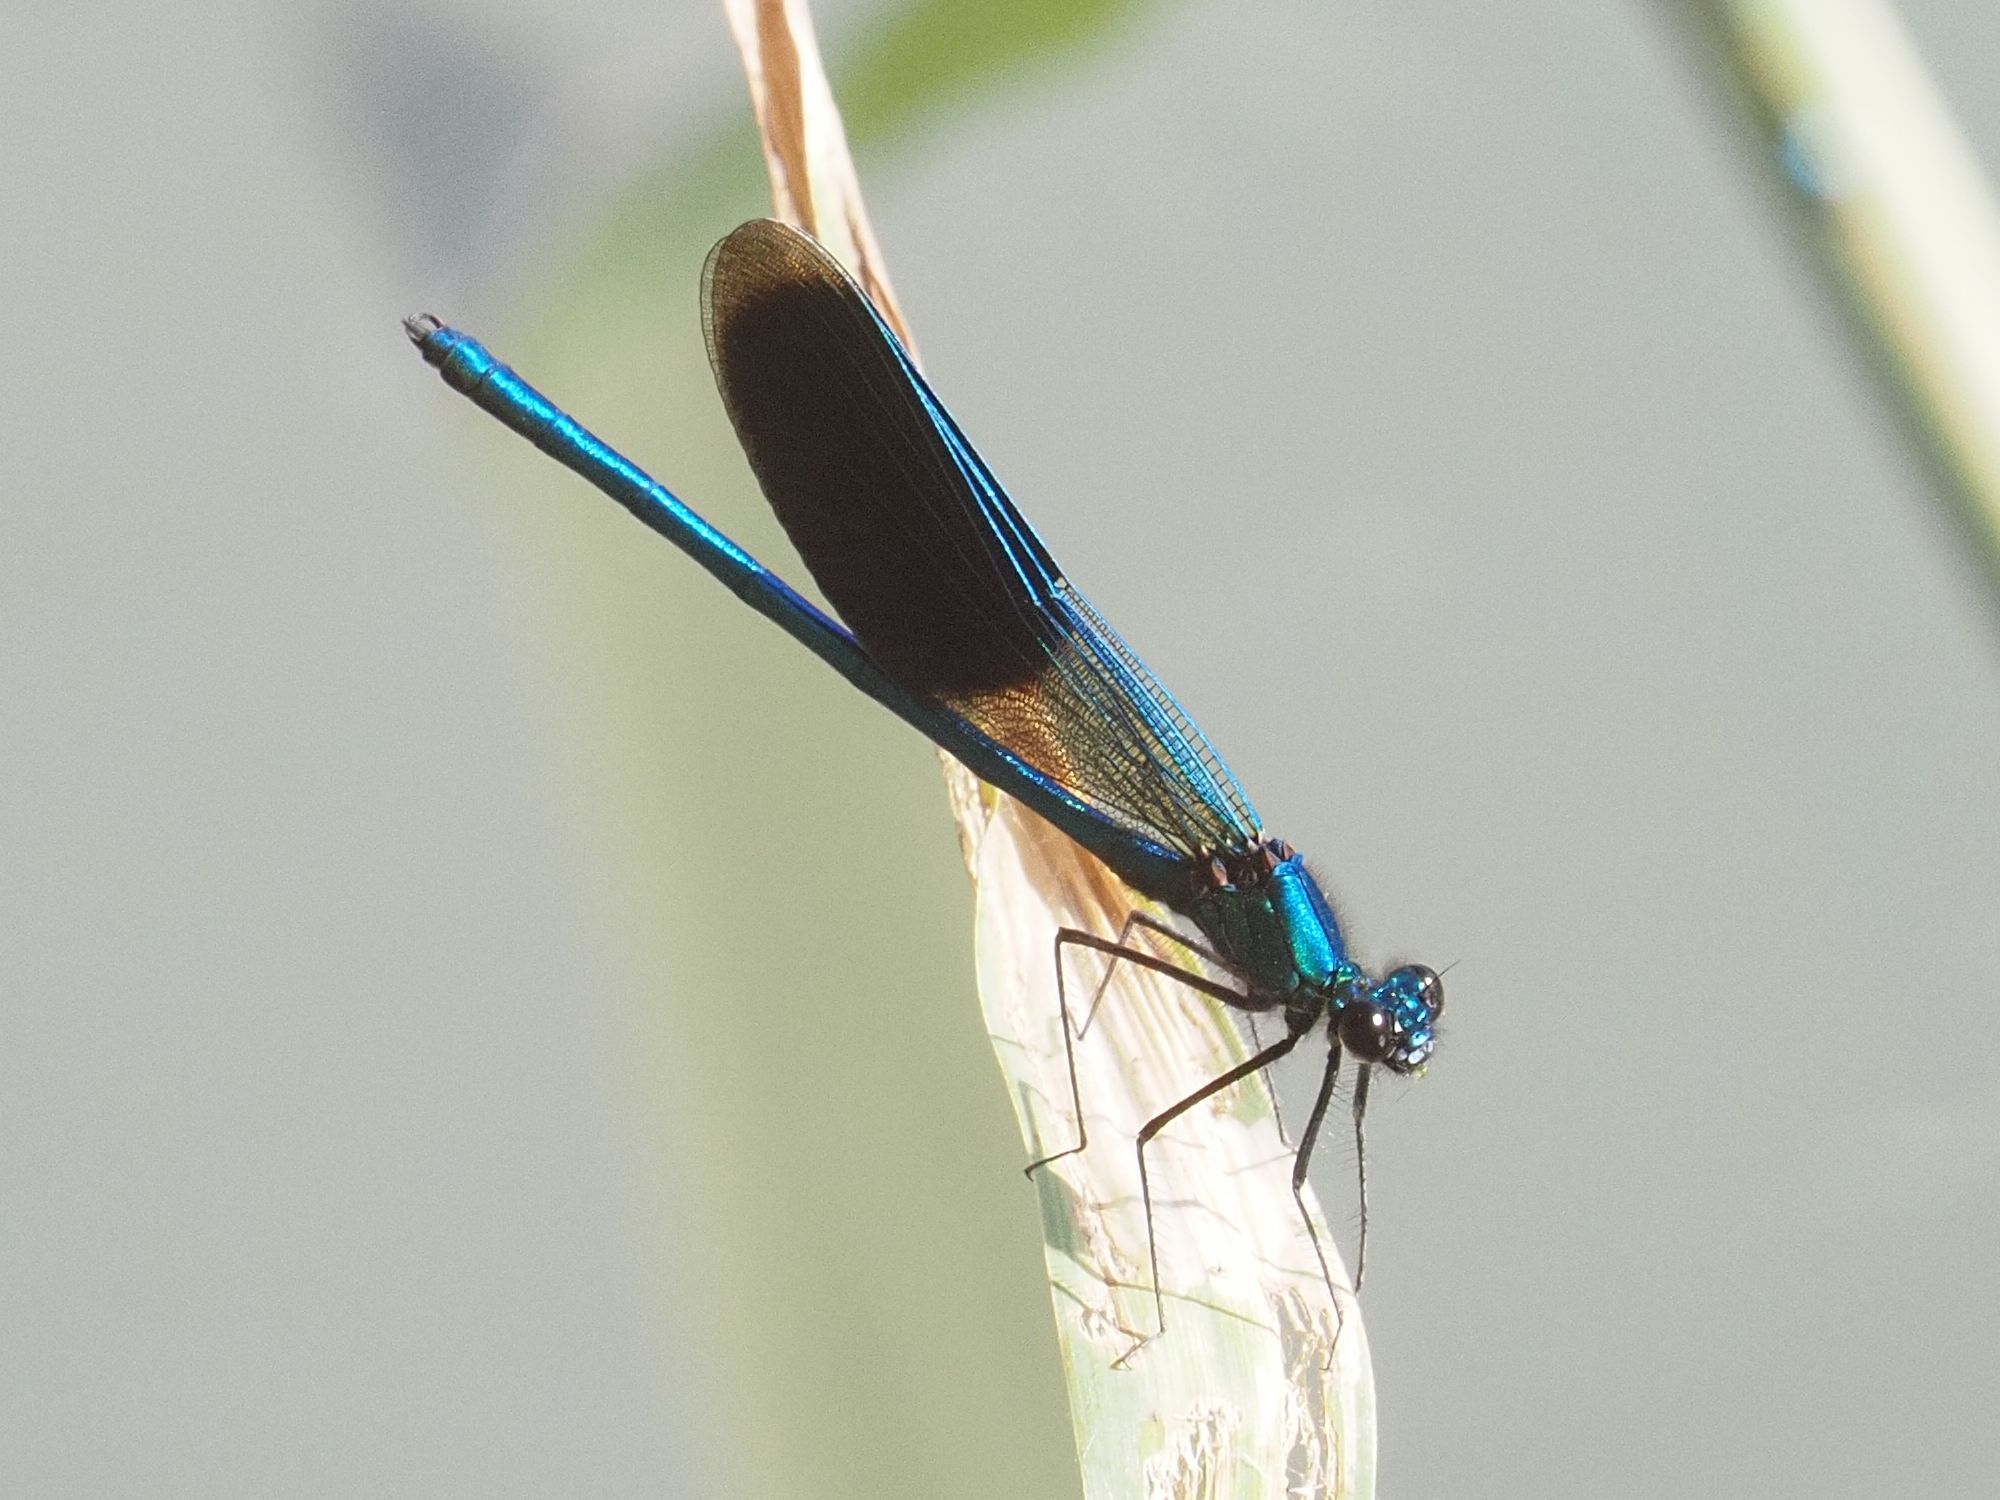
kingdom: Animalia
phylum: Arthropoda
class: Insecta
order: Odonata
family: Calopterygidae
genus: Calopteryx
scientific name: Calopteryx splendens
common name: Banded demoiselle
